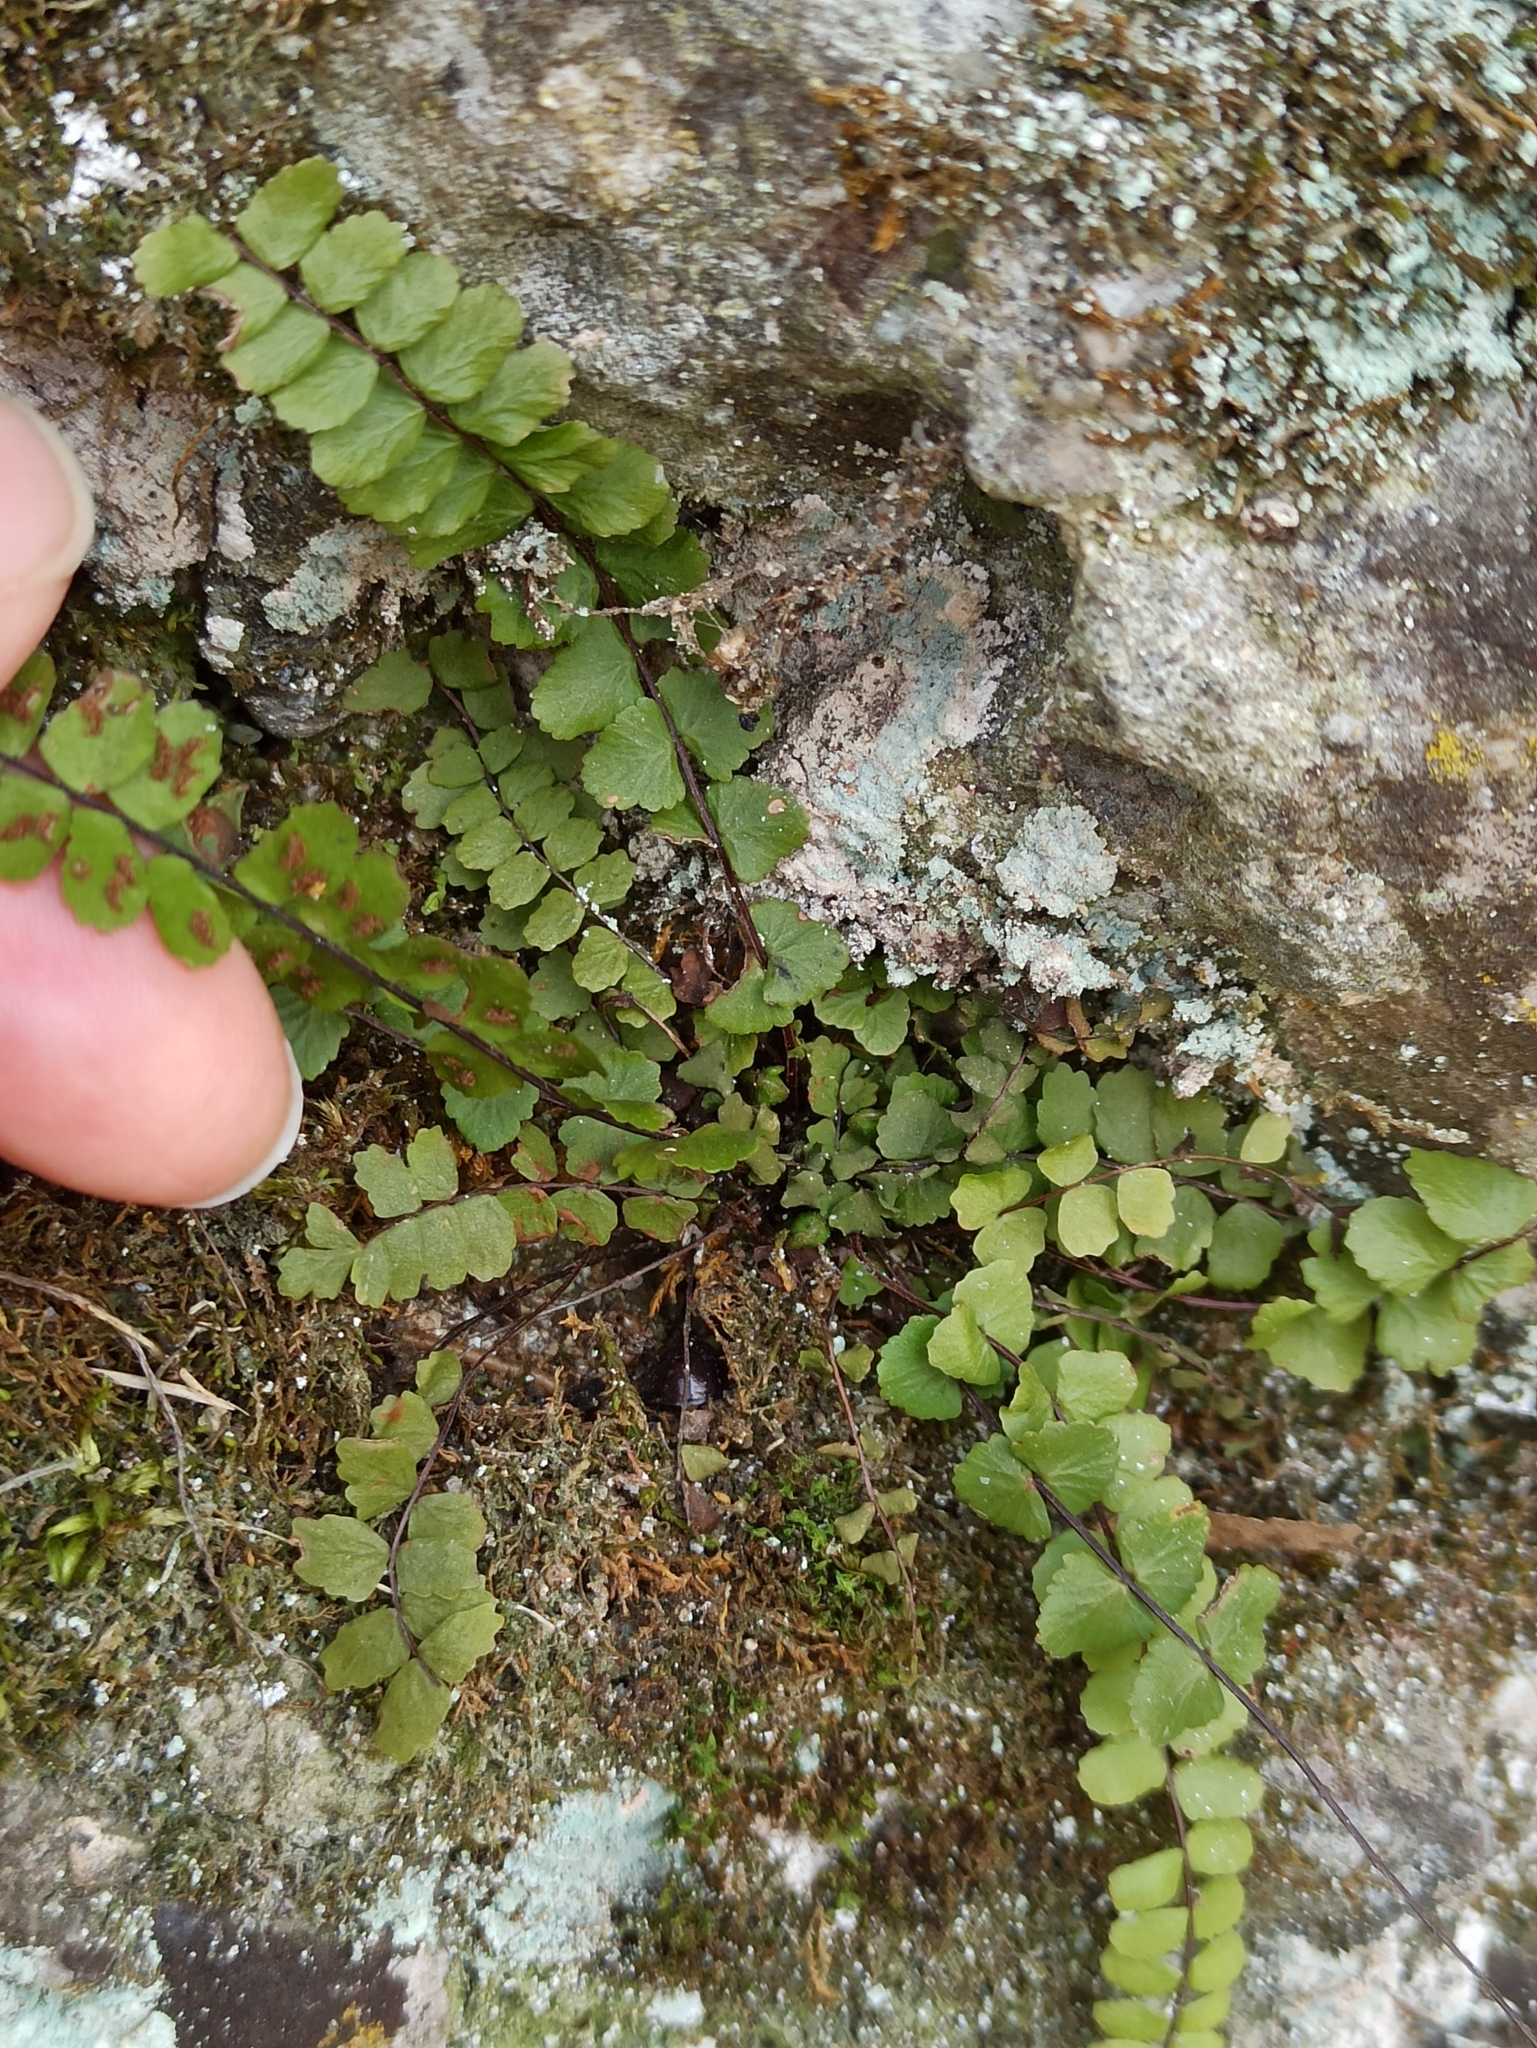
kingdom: Plantae
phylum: Tracheophyta
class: Polypodiopsida
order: Polypodiales
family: Aspleniaceae
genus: Asplenium
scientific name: Asplenium trichomanes
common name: Maidenhair spleenwort
